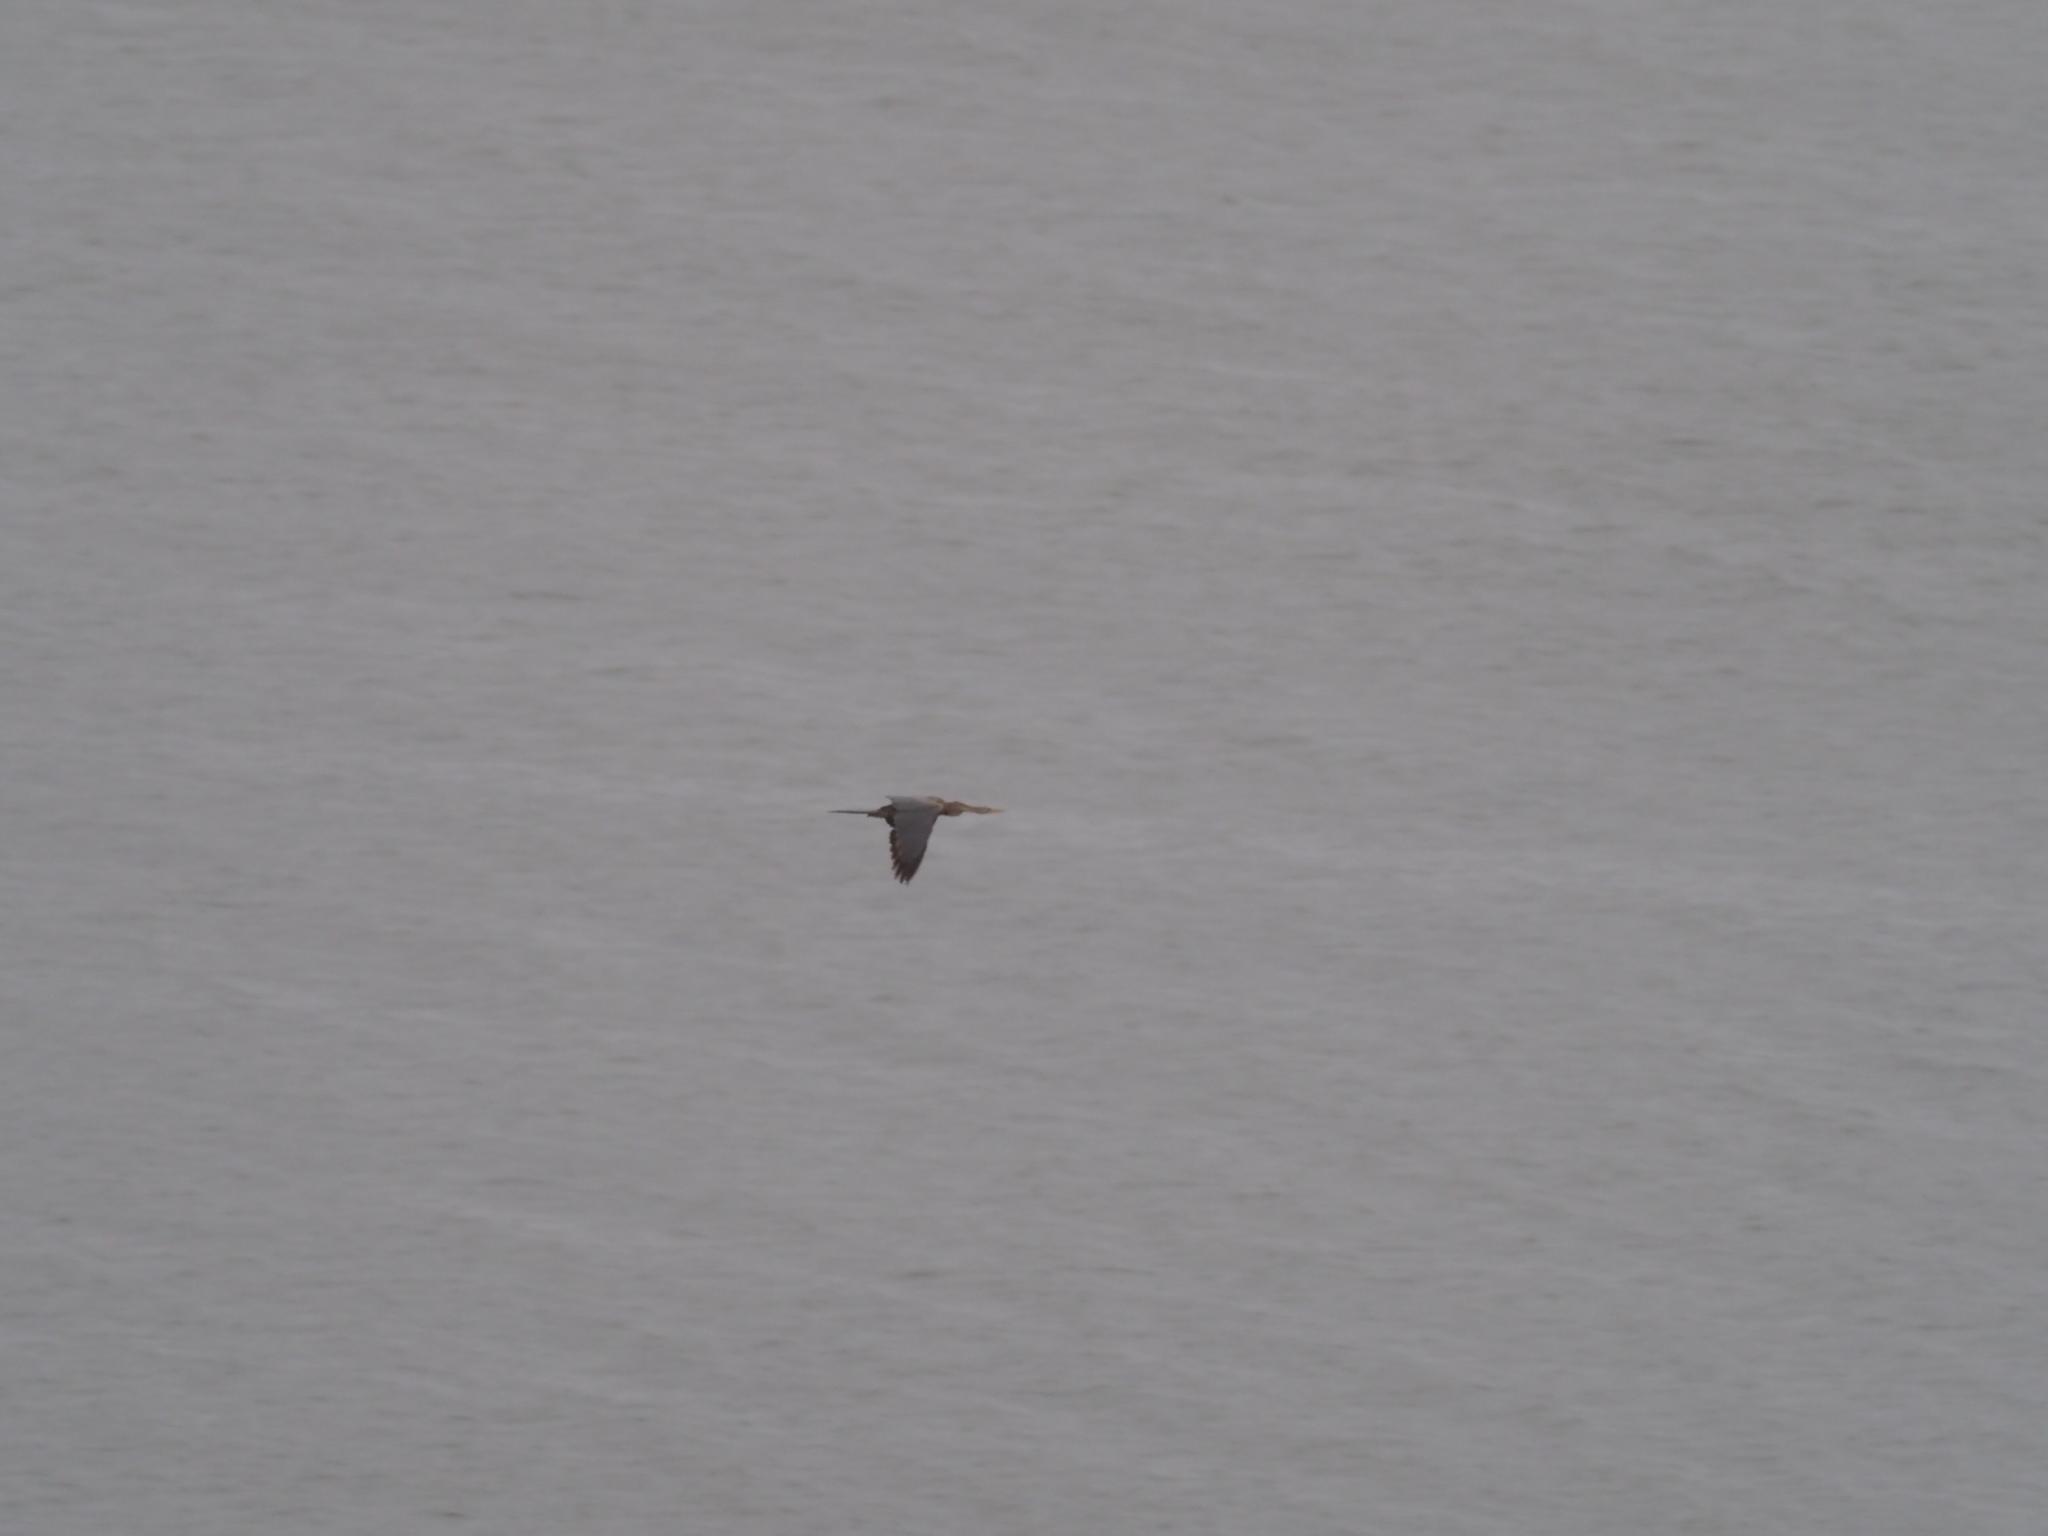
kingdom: Animalia
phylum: Chordata
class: Aves
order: Suliformes
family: Anhingidae
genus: Anhinga
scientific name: Anhinga rufa
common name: African darter
